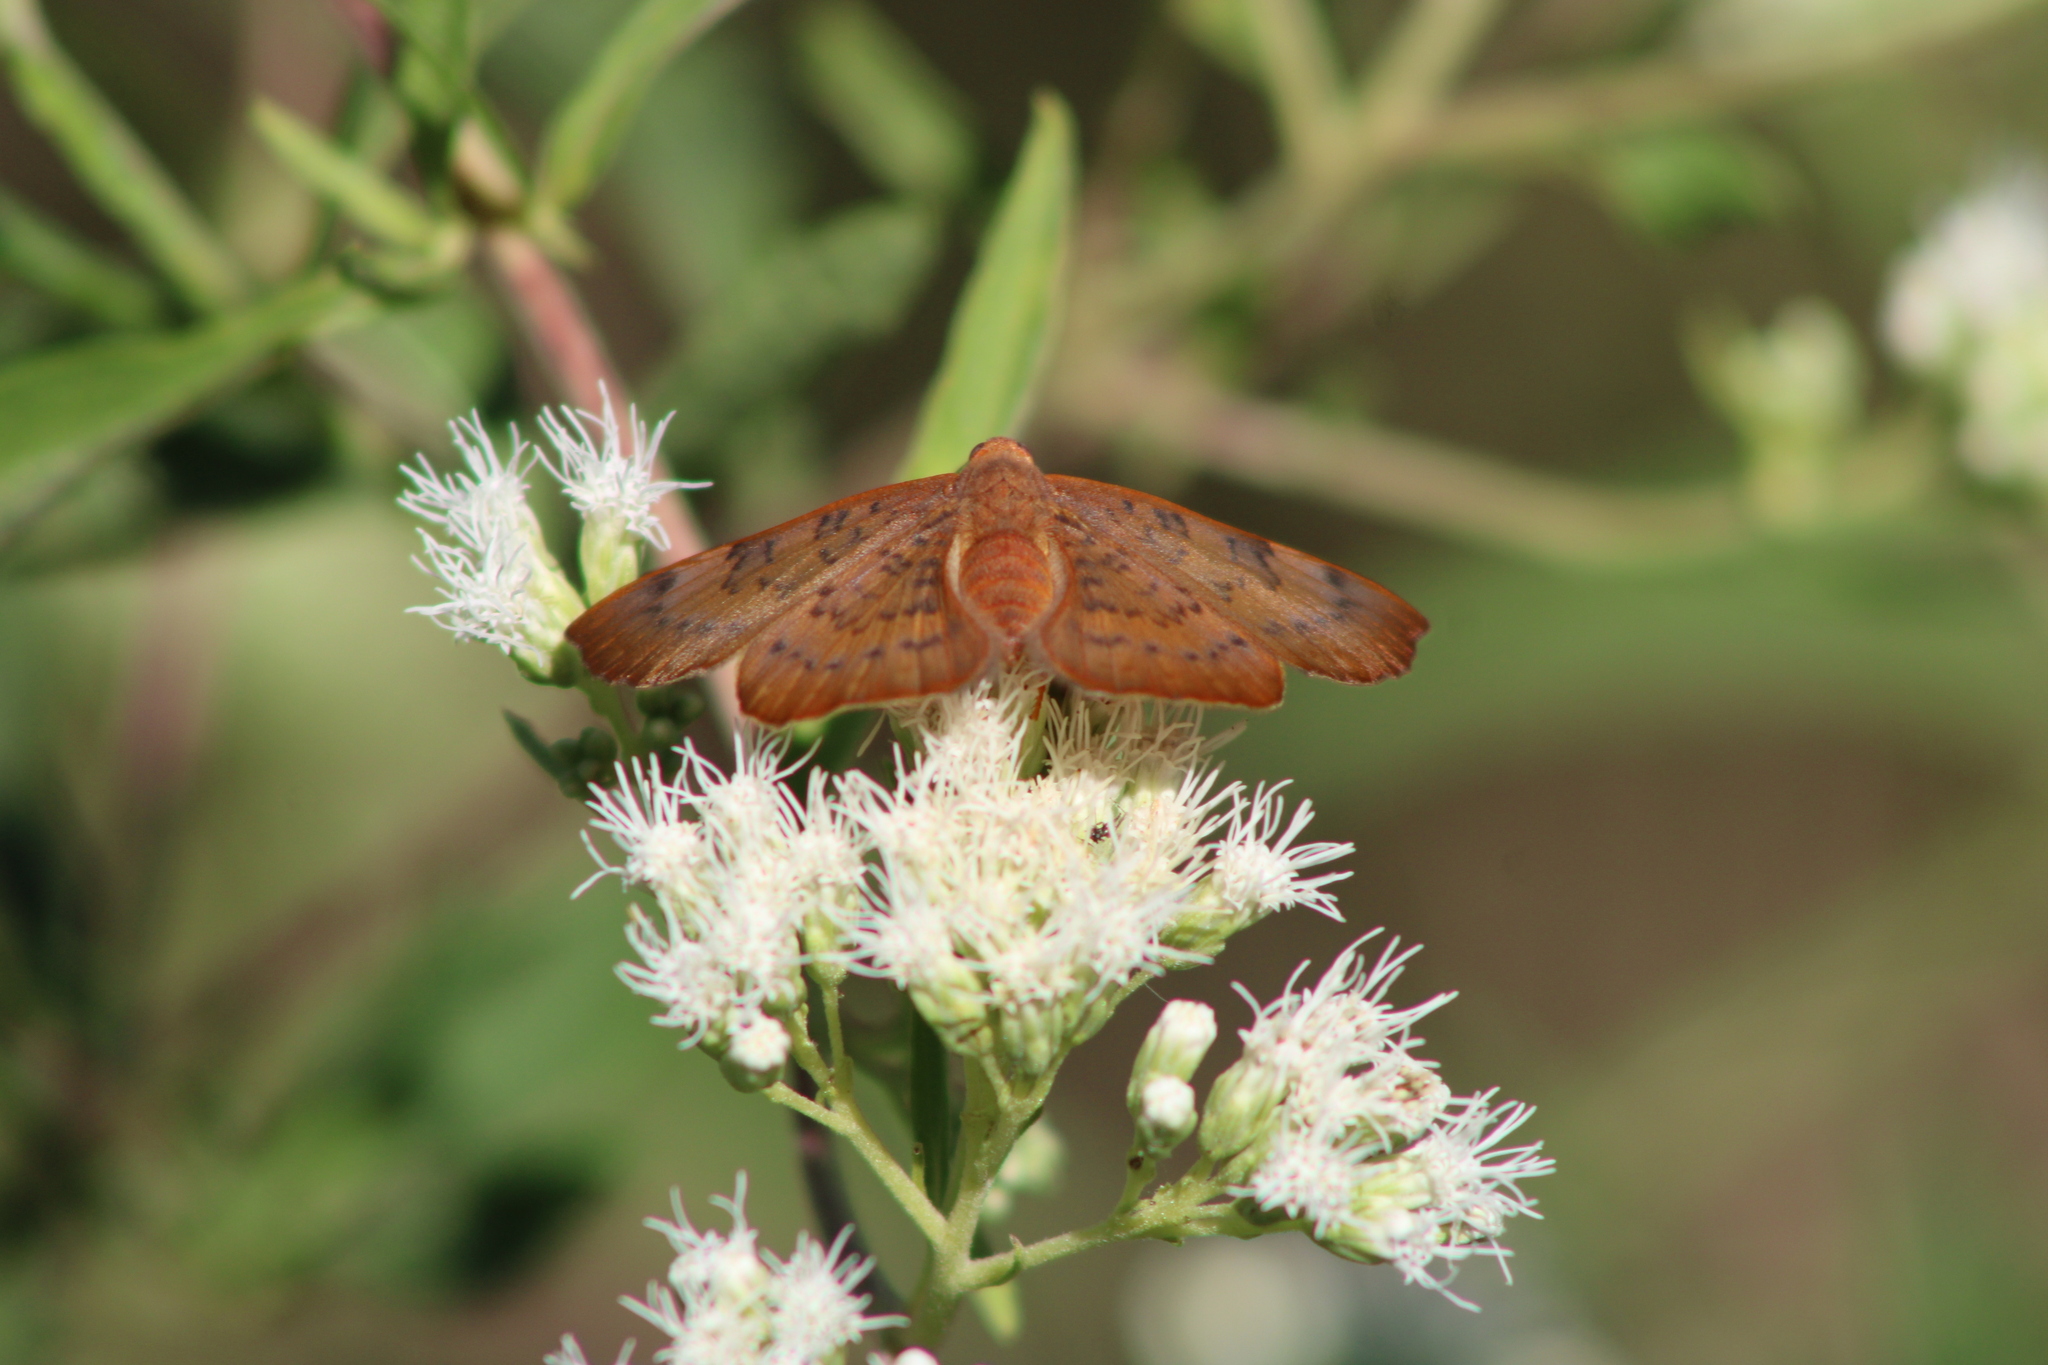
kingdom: Animalia
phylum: Arthropoda
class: Insecta
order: Lepidoptera
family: Lycaenidae
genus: Emesis
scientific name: Emesis russula
